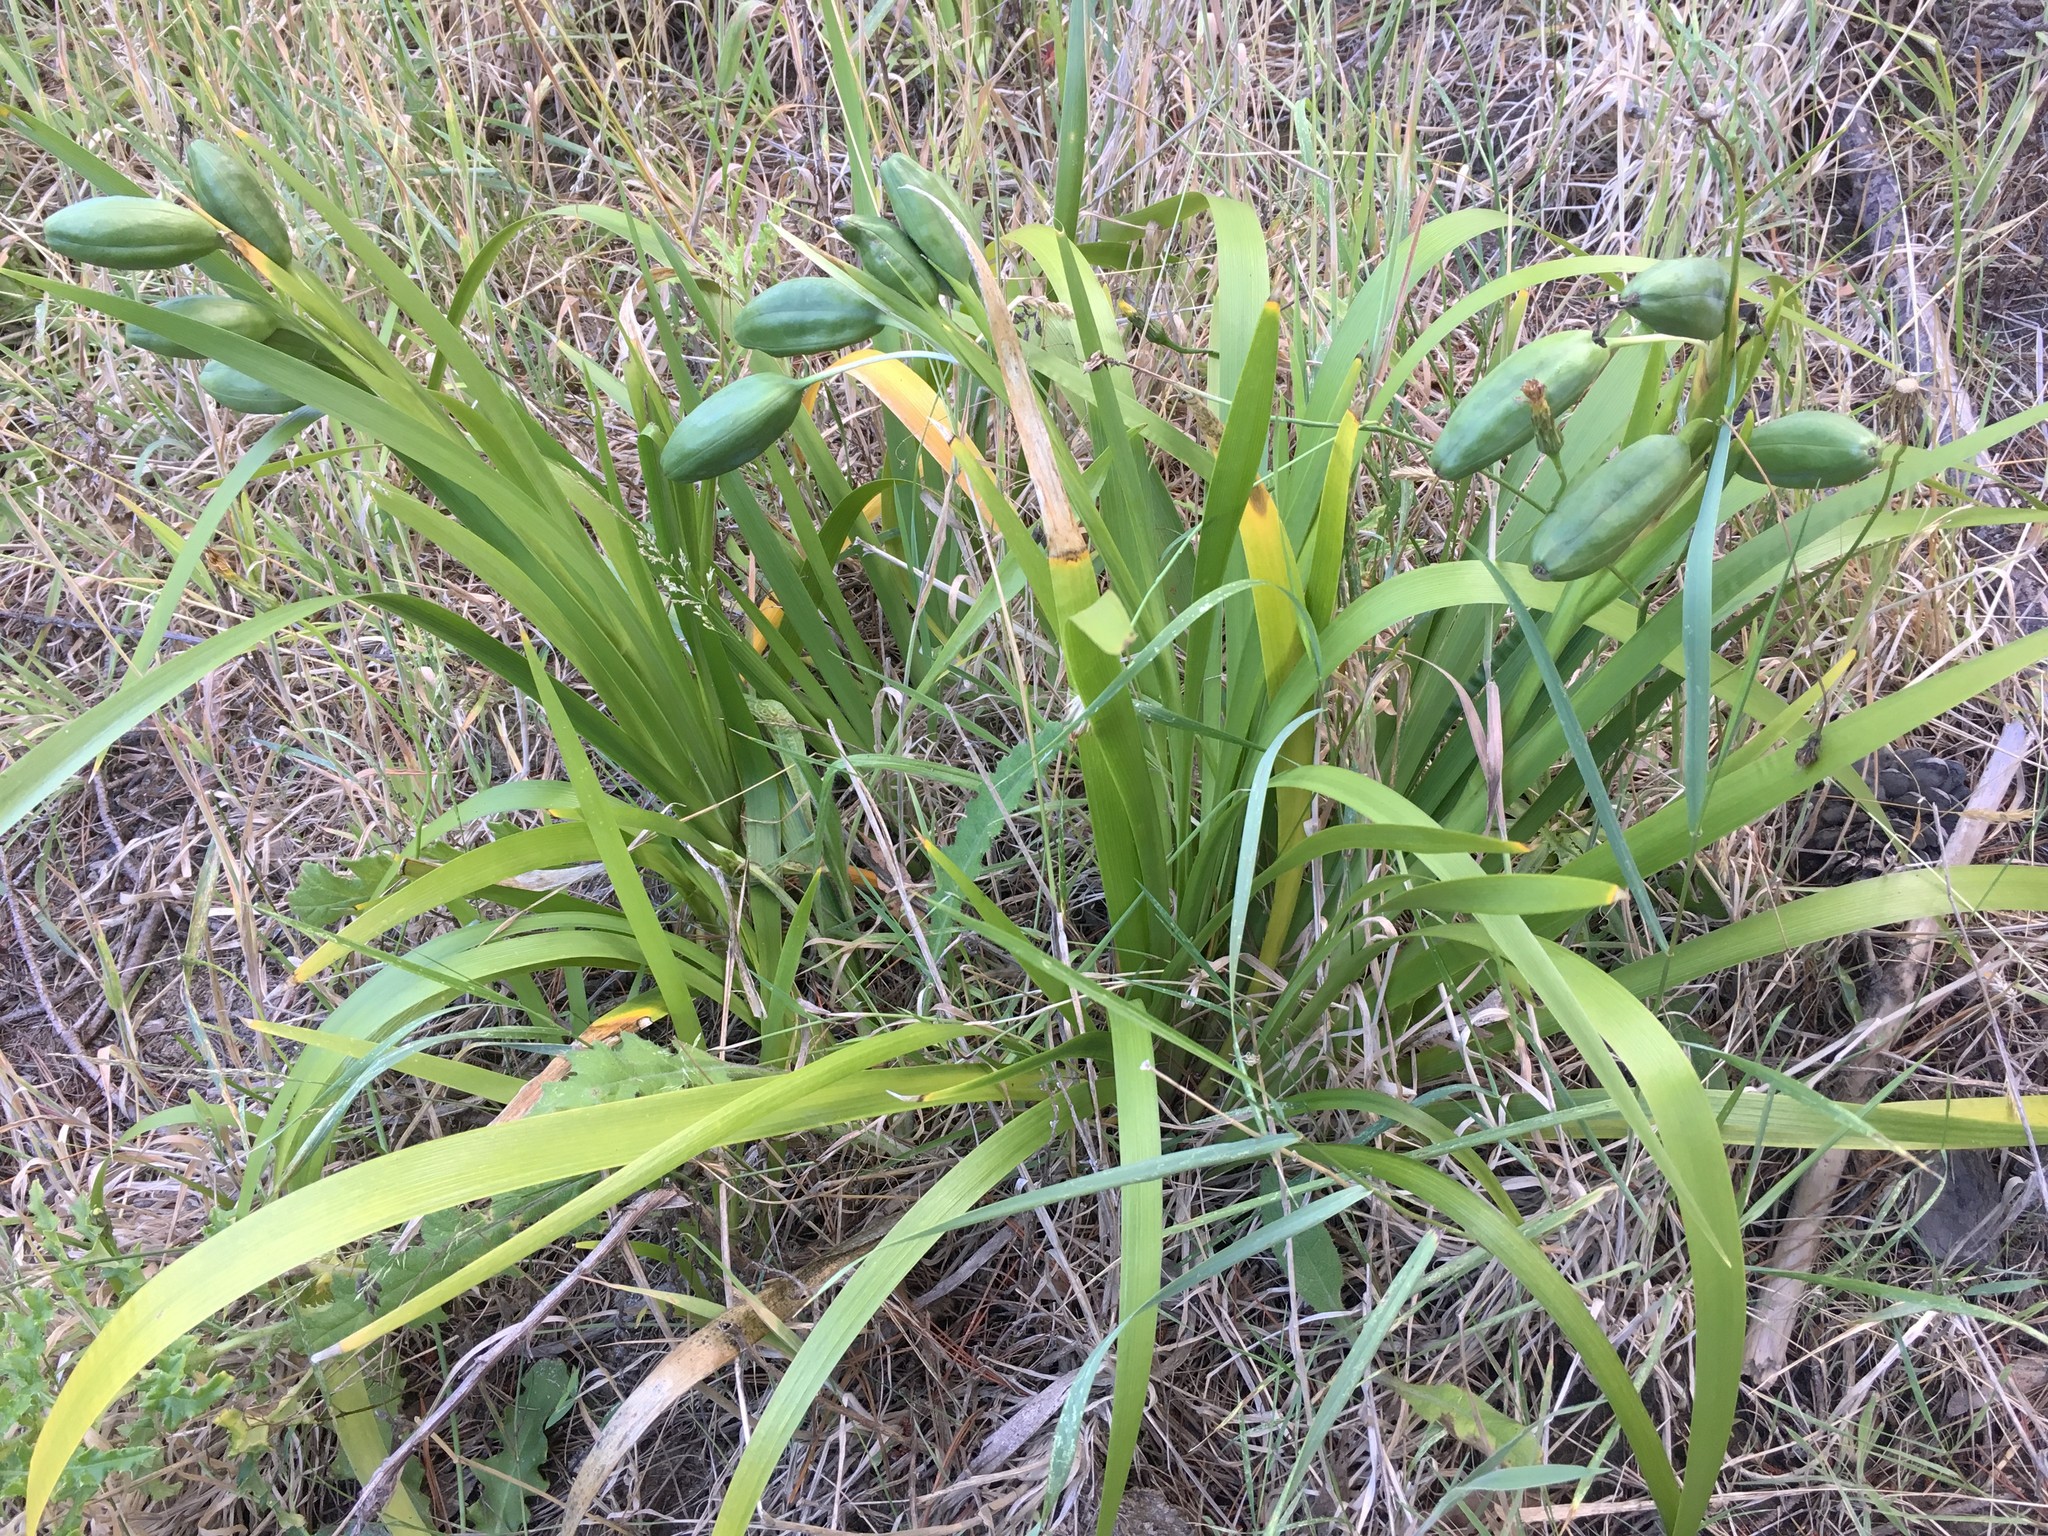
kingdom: Plantae
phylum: Tracheophyta
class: Liliopsida
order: Asparagales
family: Iridaceae
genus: Iris
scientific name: Iris foetidissima
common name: Stinking iris
